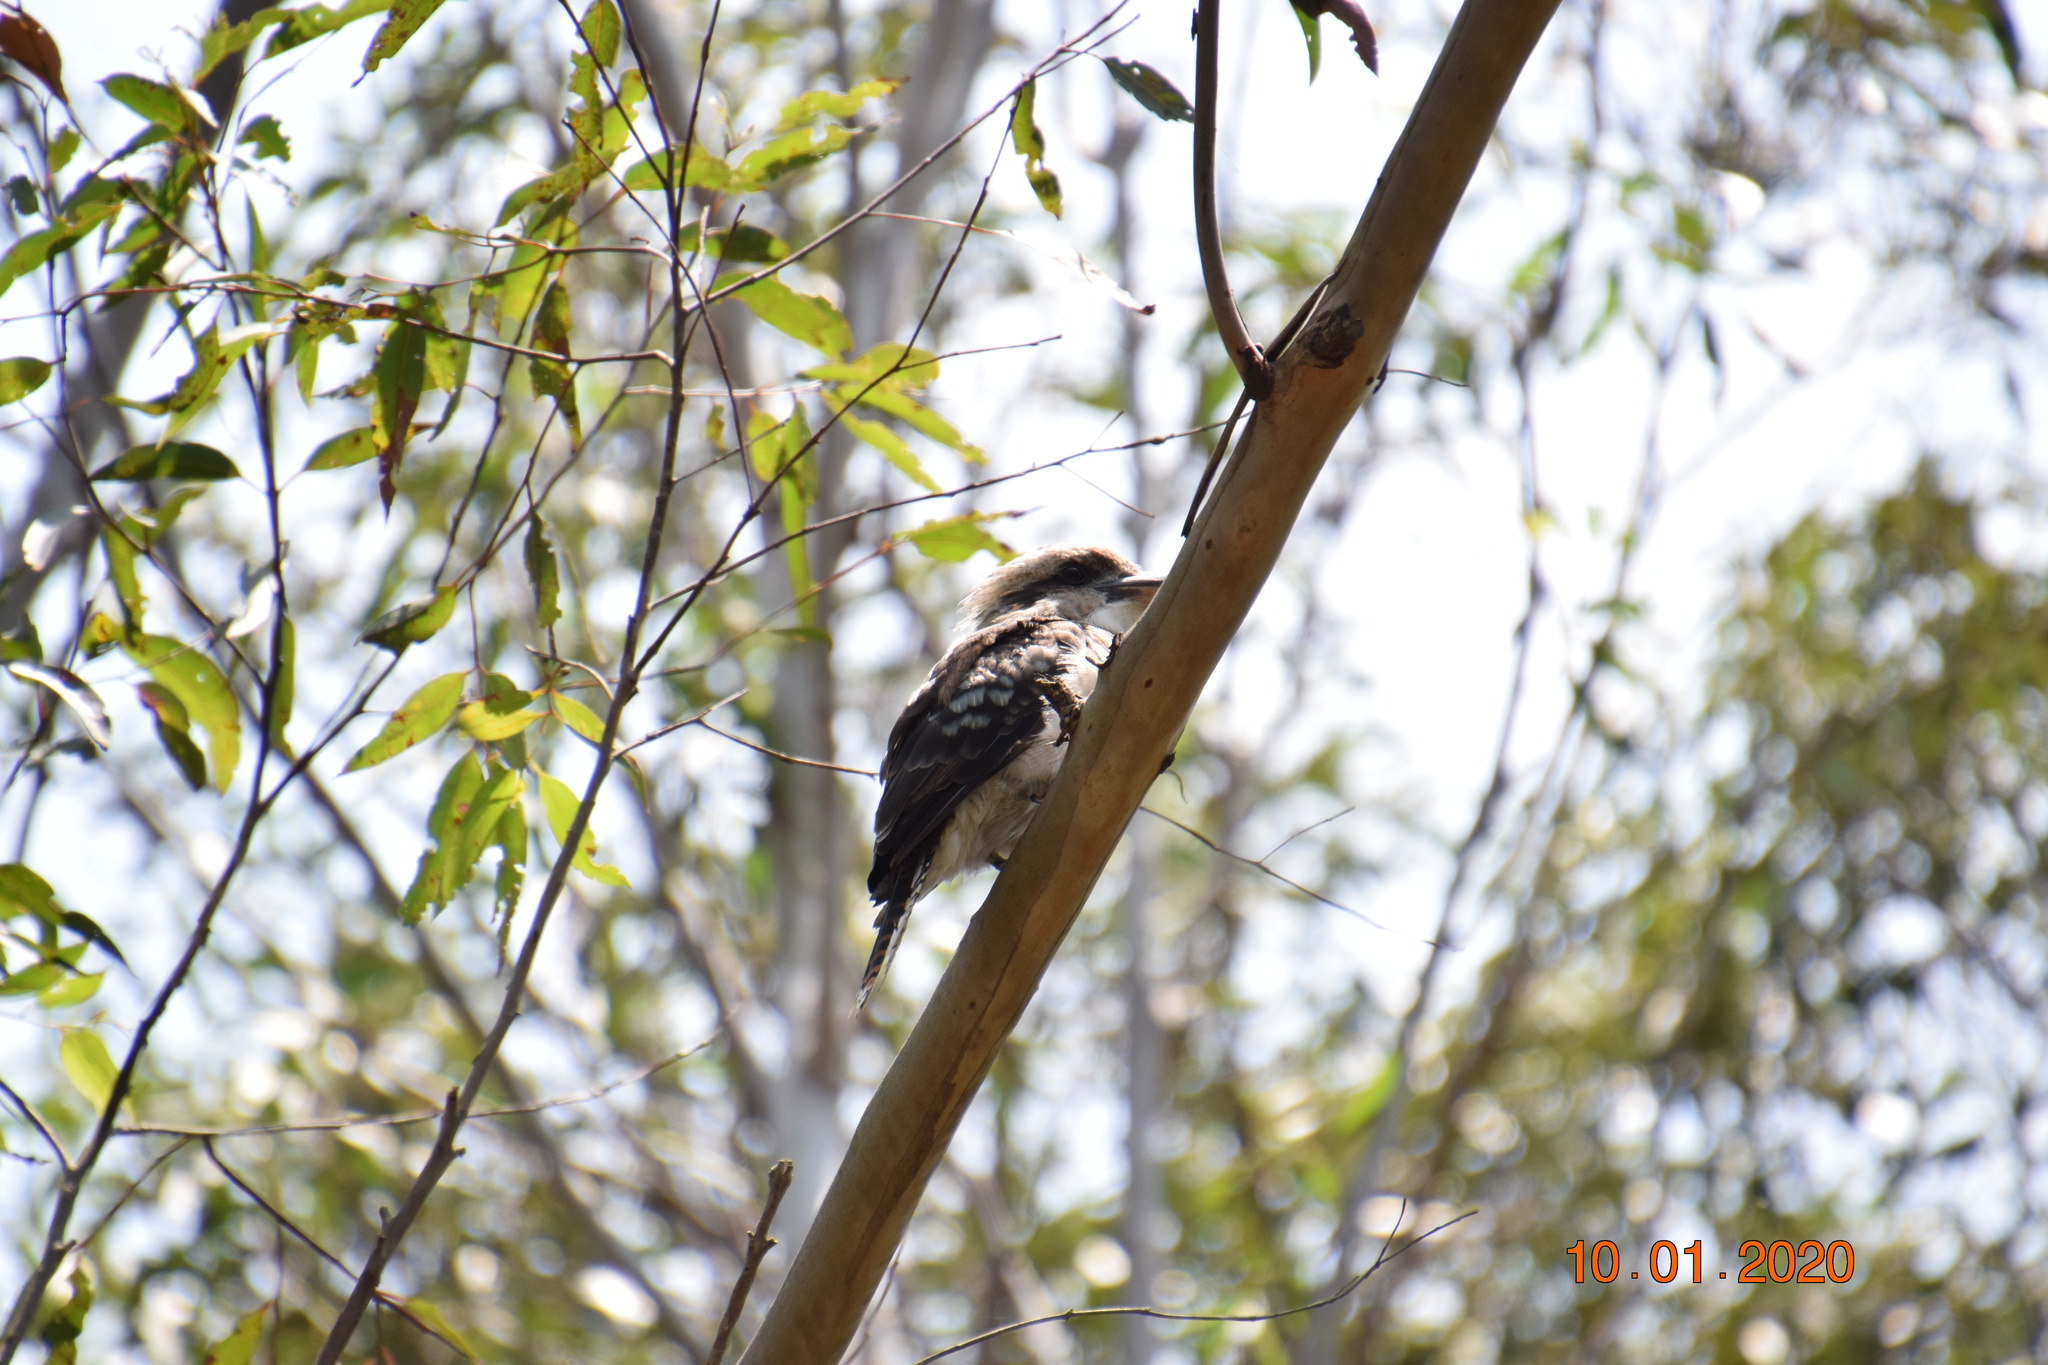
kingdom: Animalia
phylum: Chordata
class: Aves
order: Coraciiformes
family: Alcedinidae
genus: Dacelo
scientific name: Dacelo novaeguineae
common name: Laughing kookaburra
